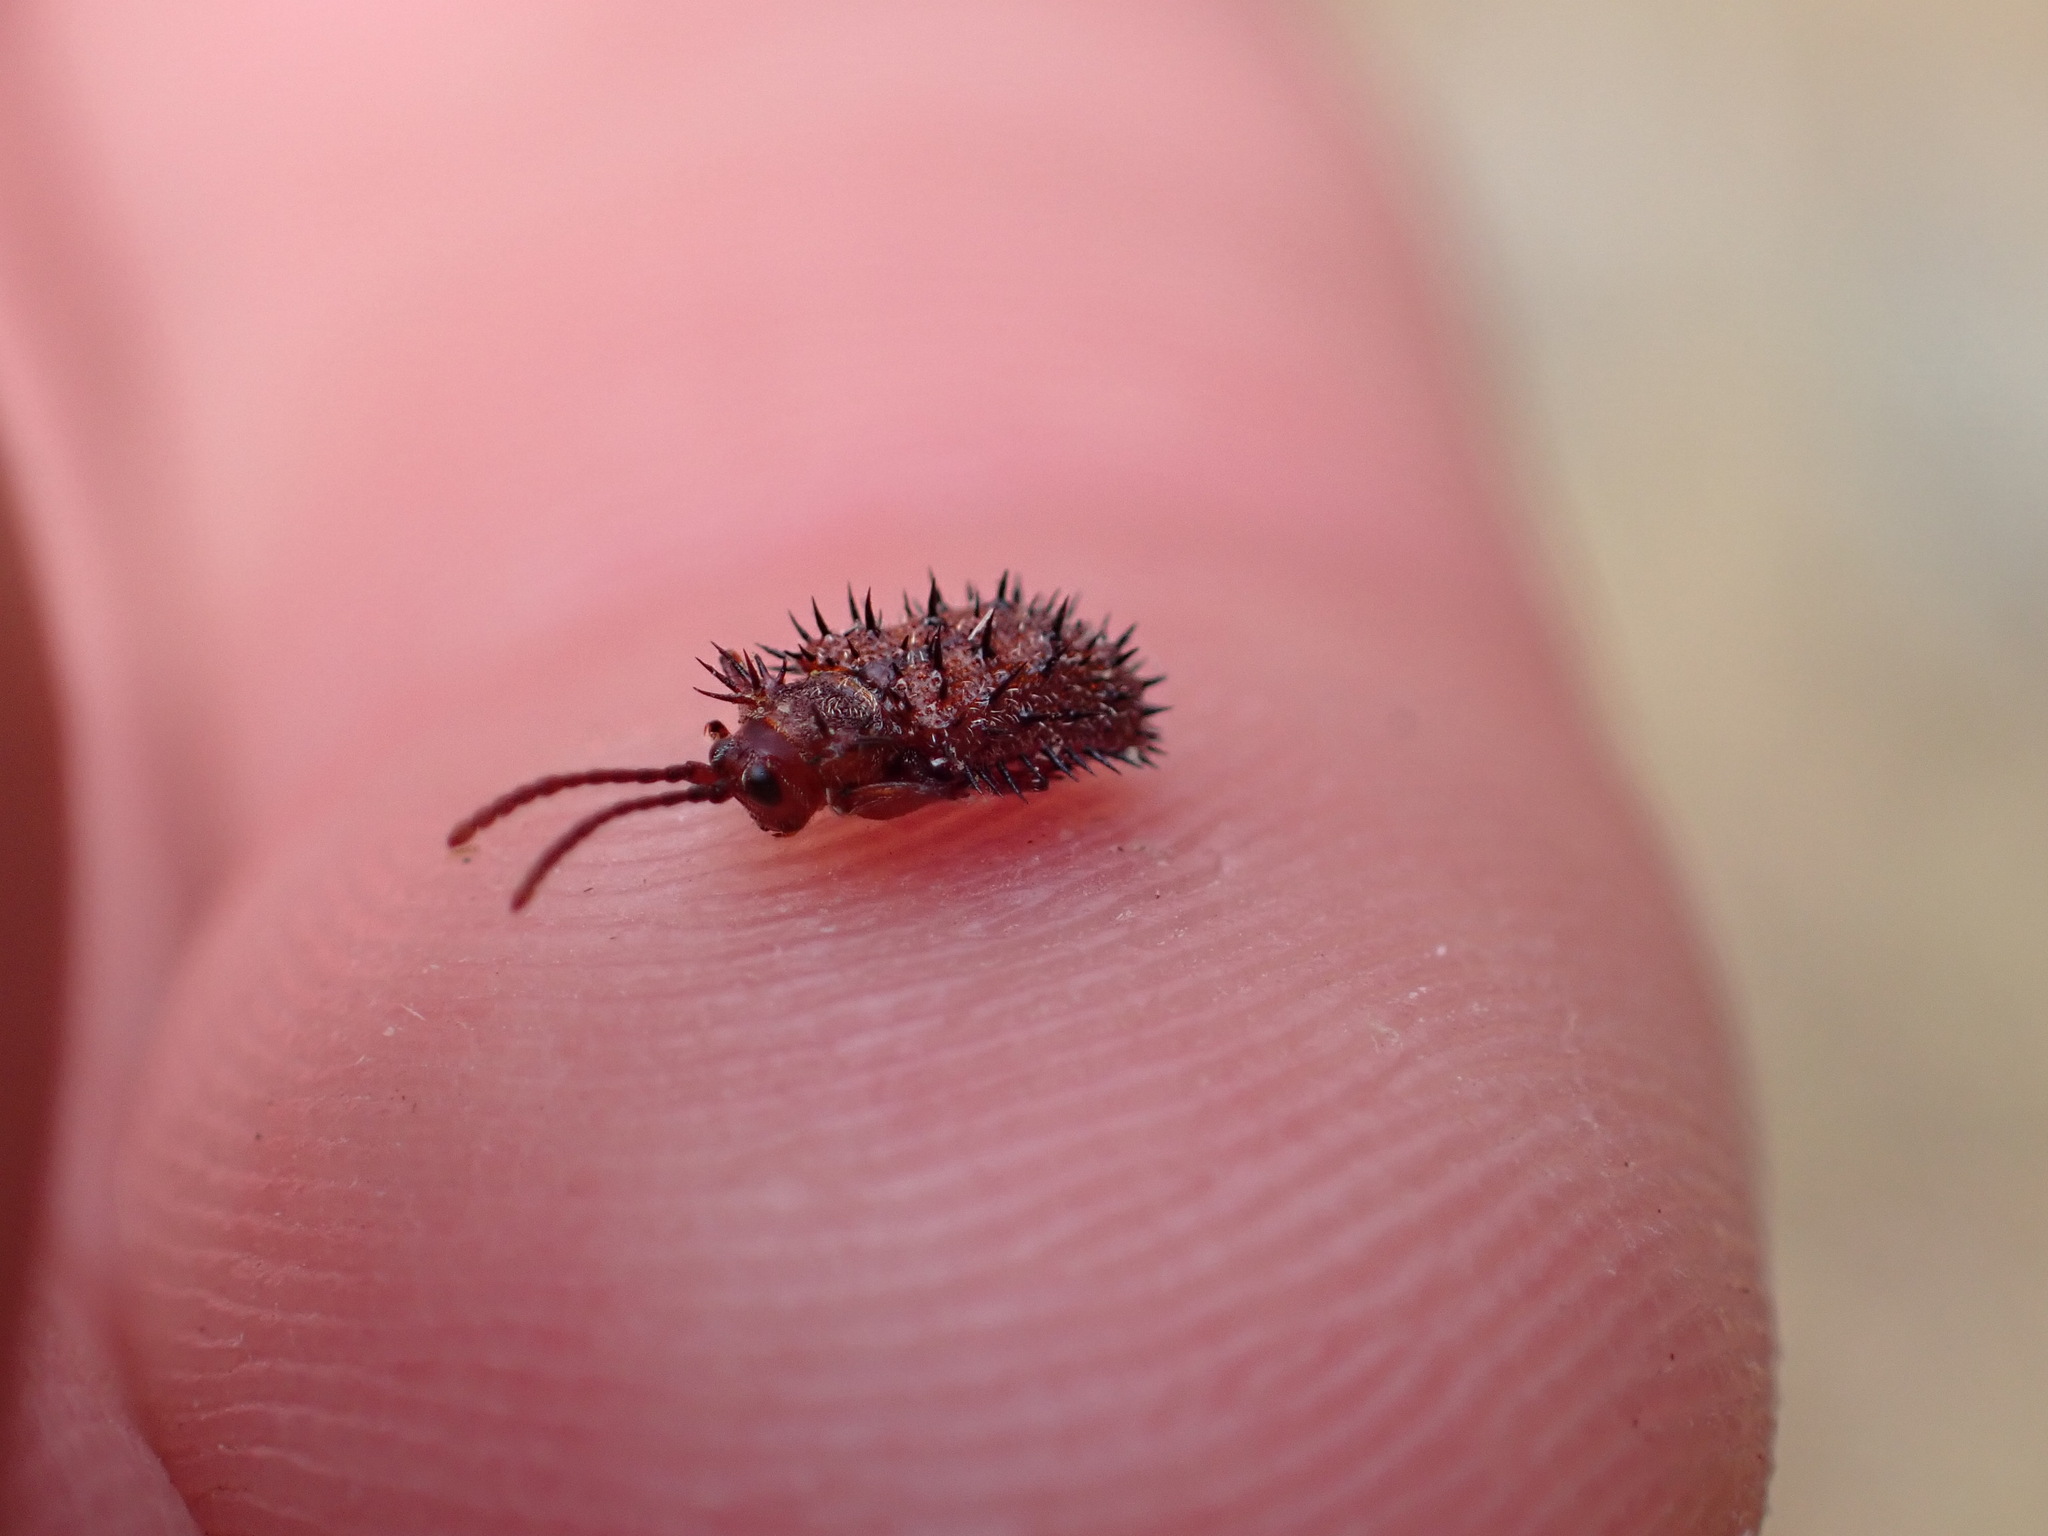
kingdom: Animalia
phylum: Arthropoda
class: Insecta
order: Coleoptera
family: Chrysomelidae
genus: Dicladispa
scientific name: Dicladispa testacea
